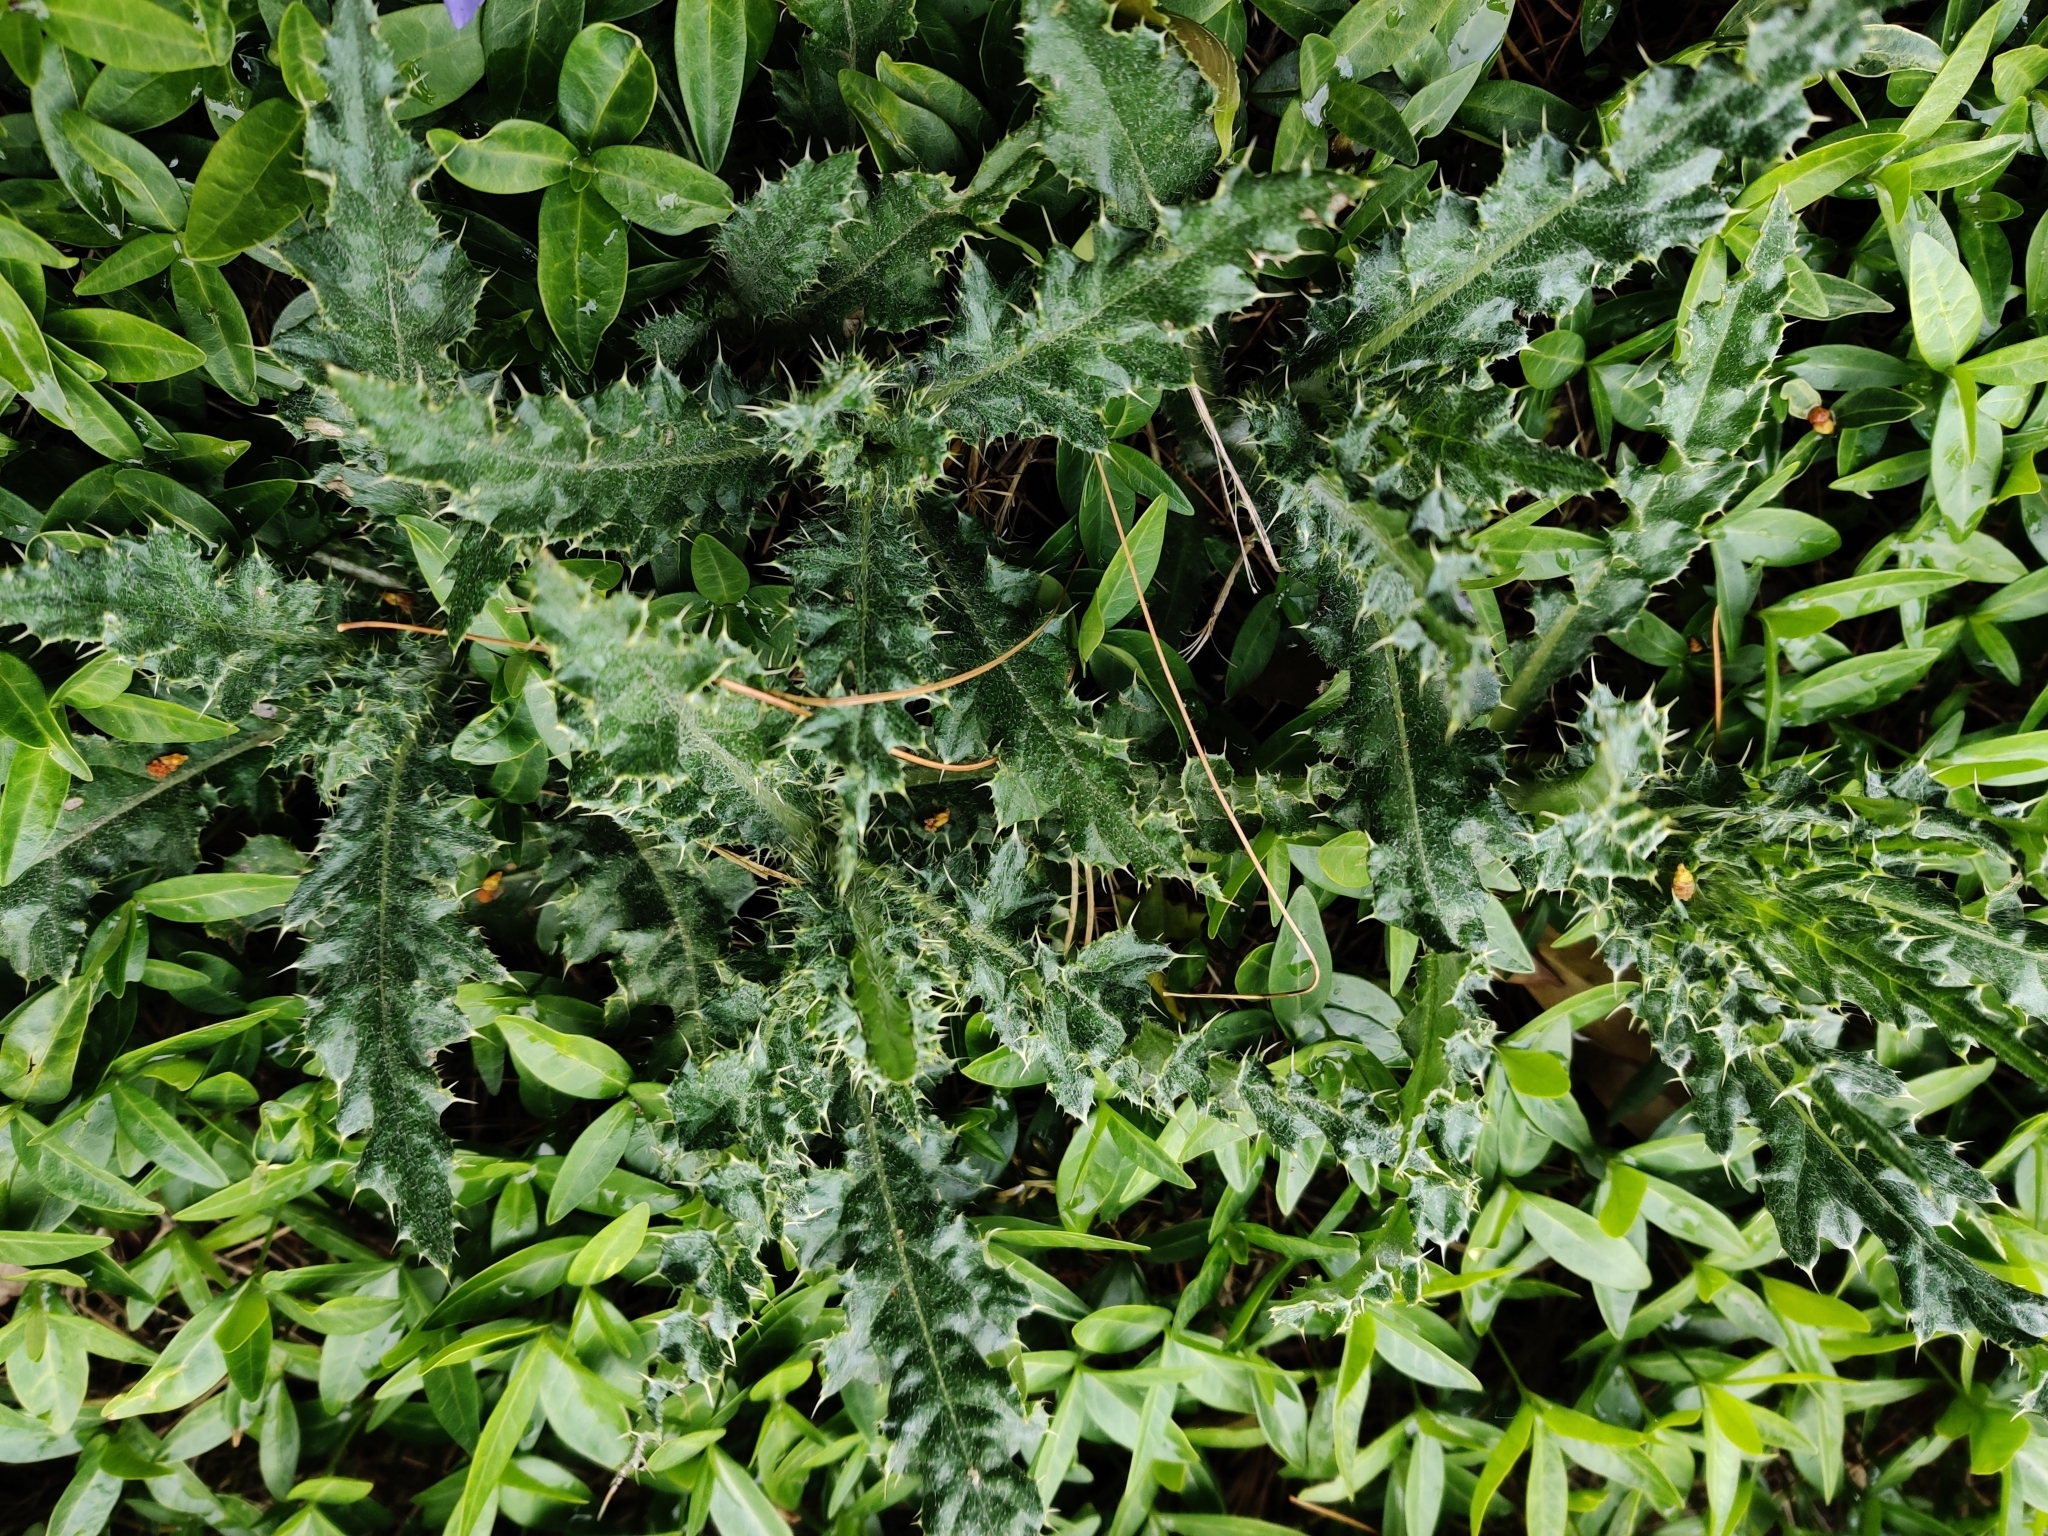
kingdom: Plantae
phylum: Tracheophyta
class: Magnoliopsida
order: Asterales
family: Asteraceae
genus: Cirsium
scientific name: Cirsium arvense
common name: Creeping thistle
